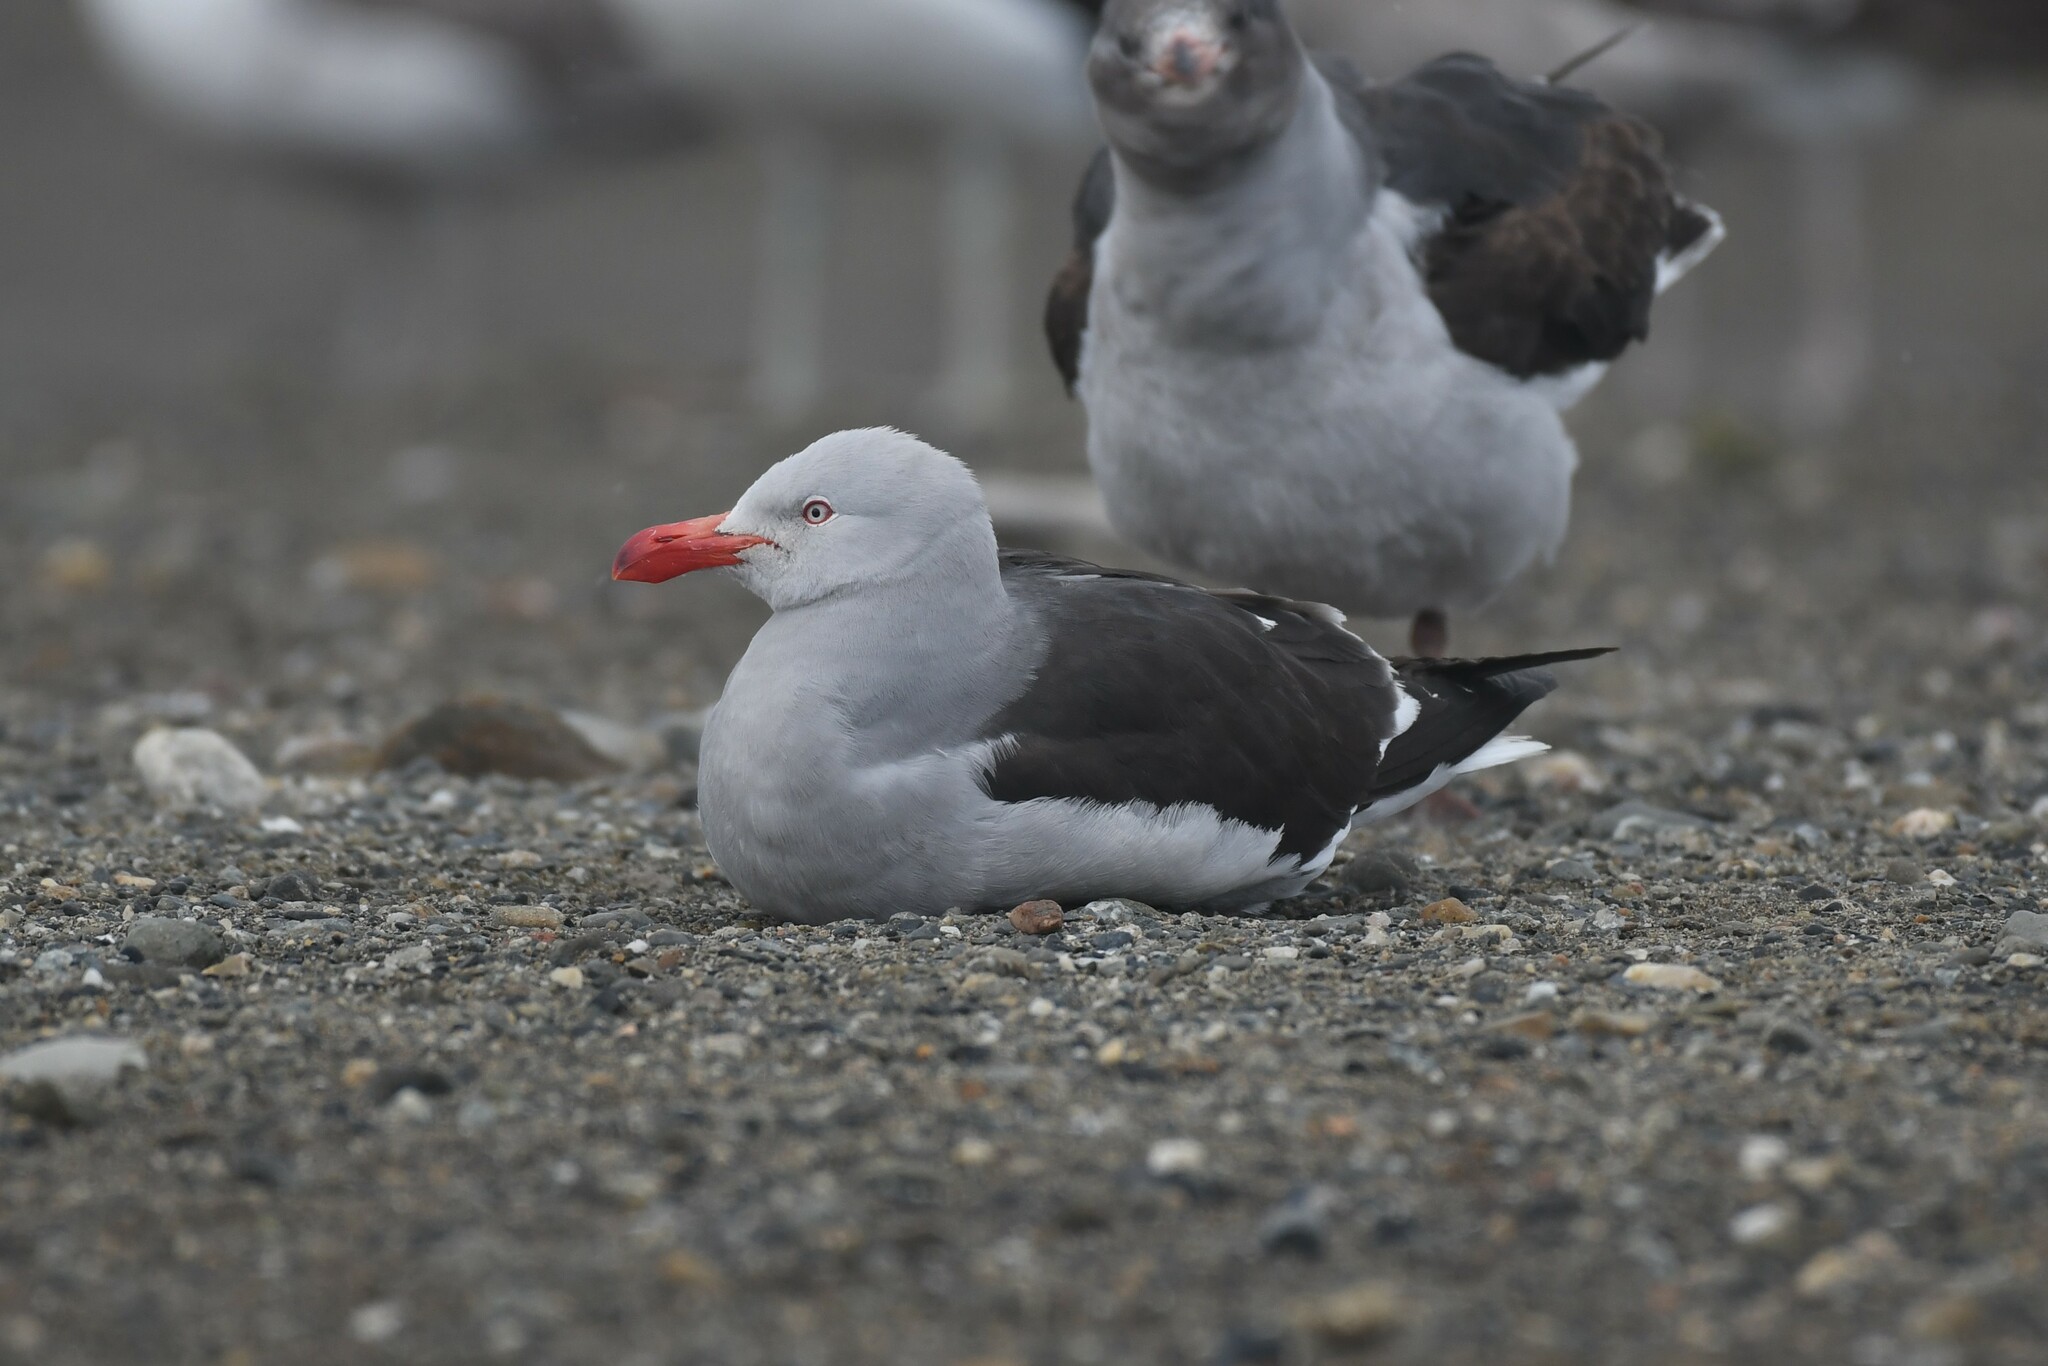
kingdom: Animalia
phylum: Chordata
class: Aves
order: Charadriiformes
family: Laridae
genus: Leucophaeus
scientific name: Leucophaeus scoresbii
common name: Dolphin gull
